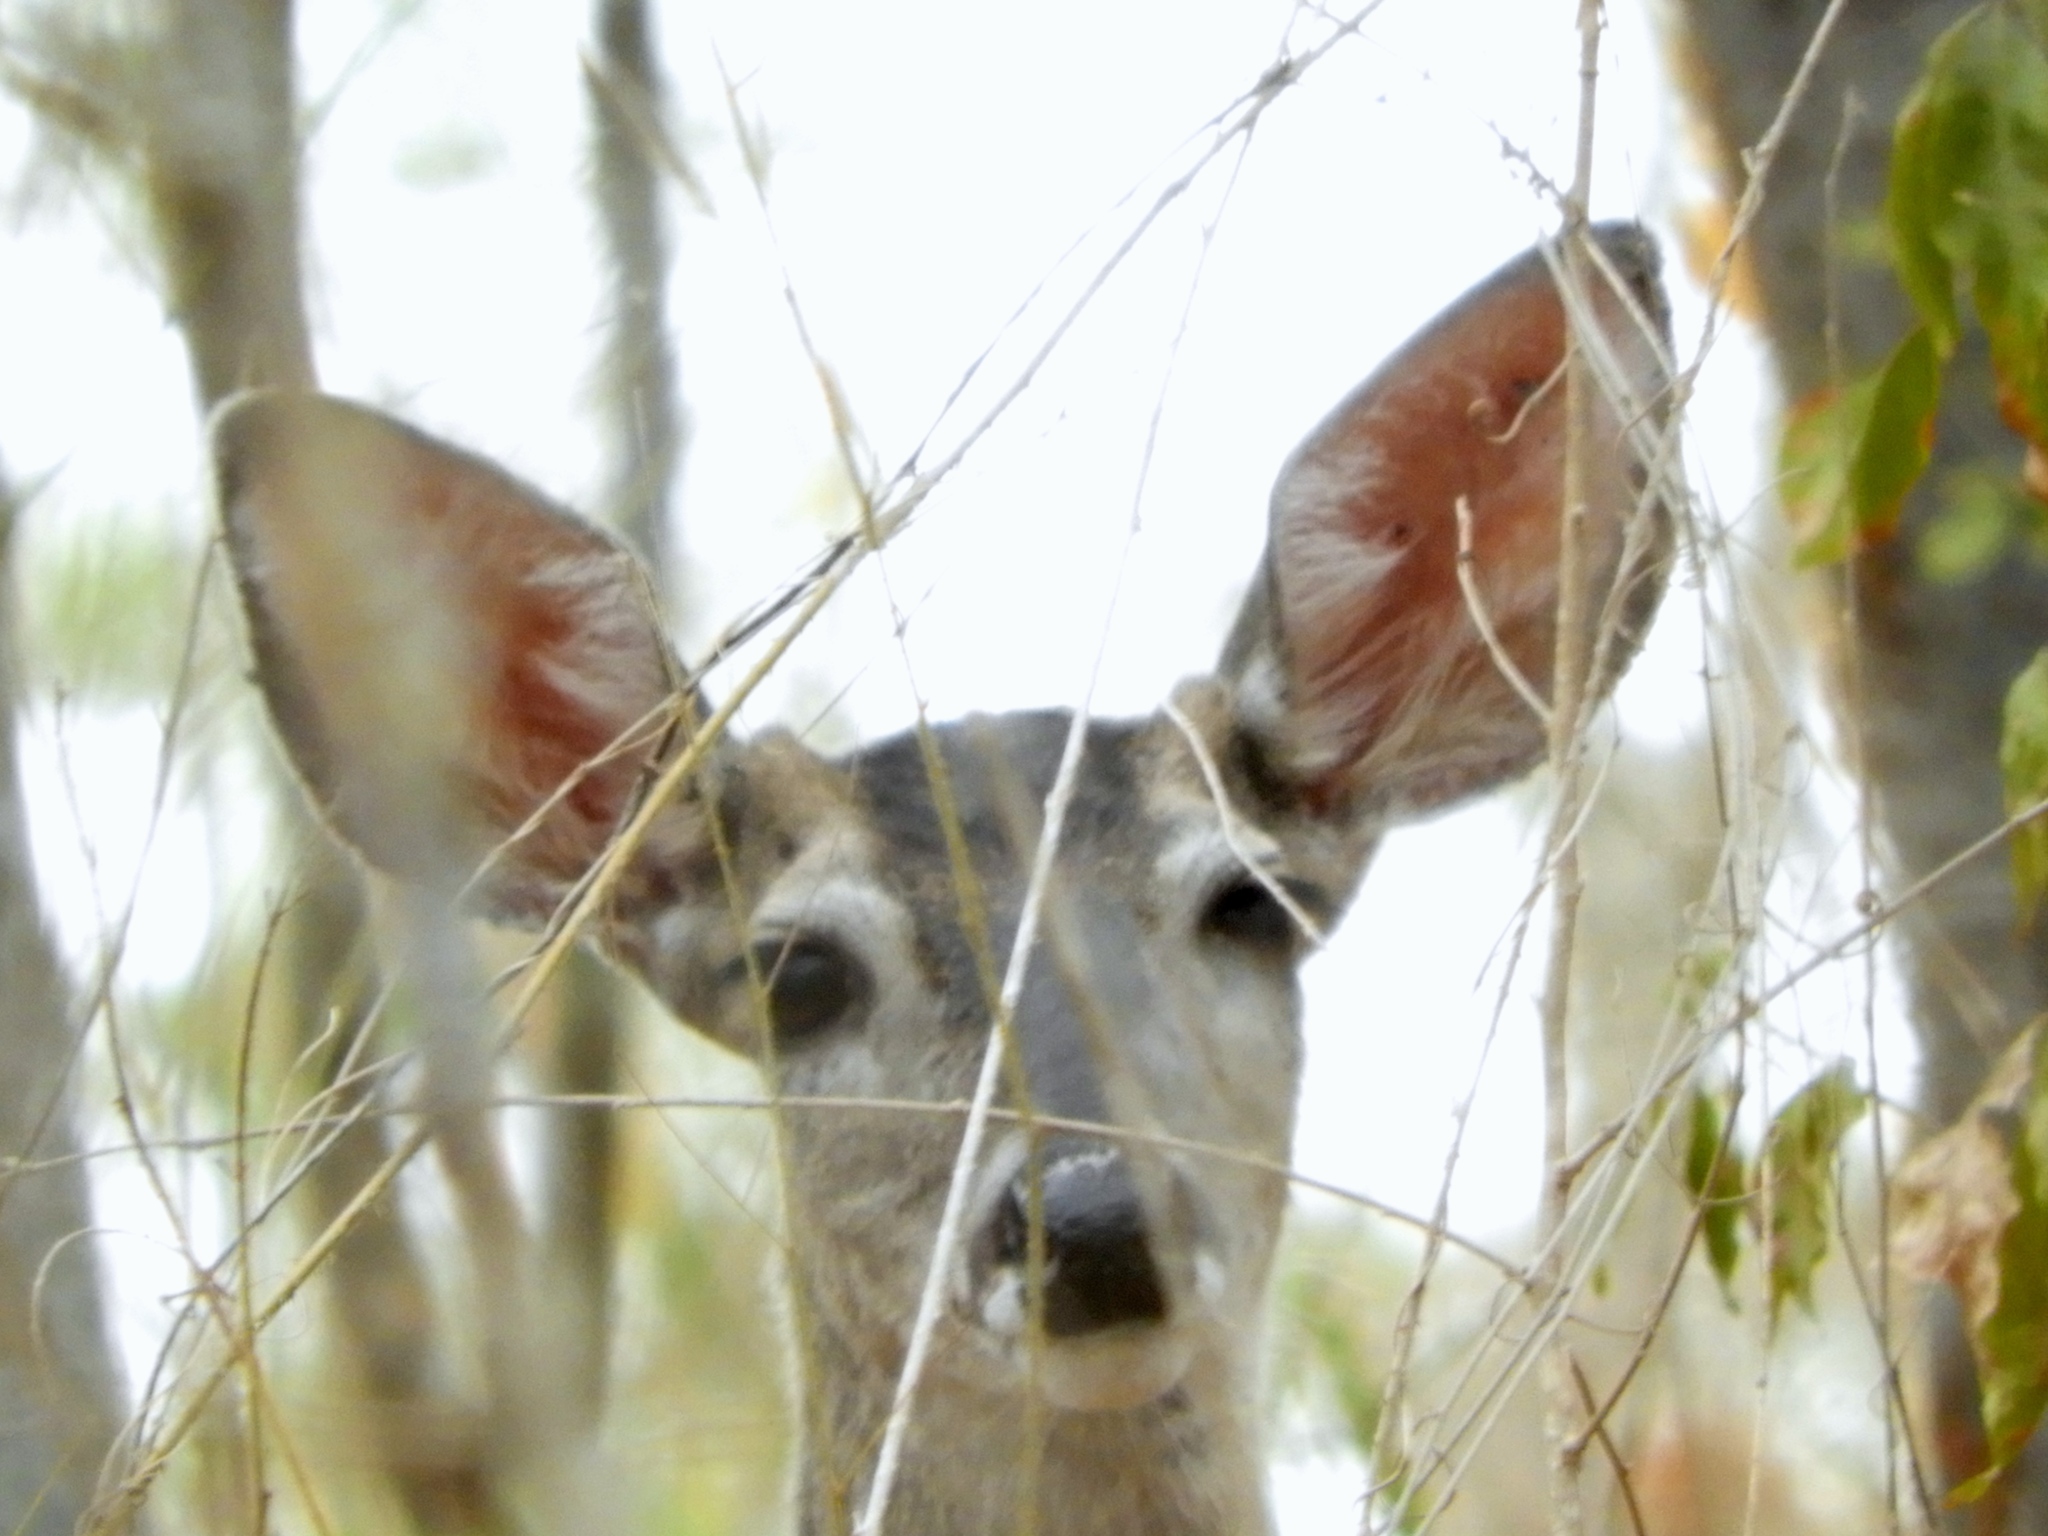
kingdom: Animalia
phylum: Chordata
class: Mammalia
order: Artiodactyla
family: Cervidae
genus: Odocoileus
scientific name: Odocoileus virginianus
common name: White-tailed deer
